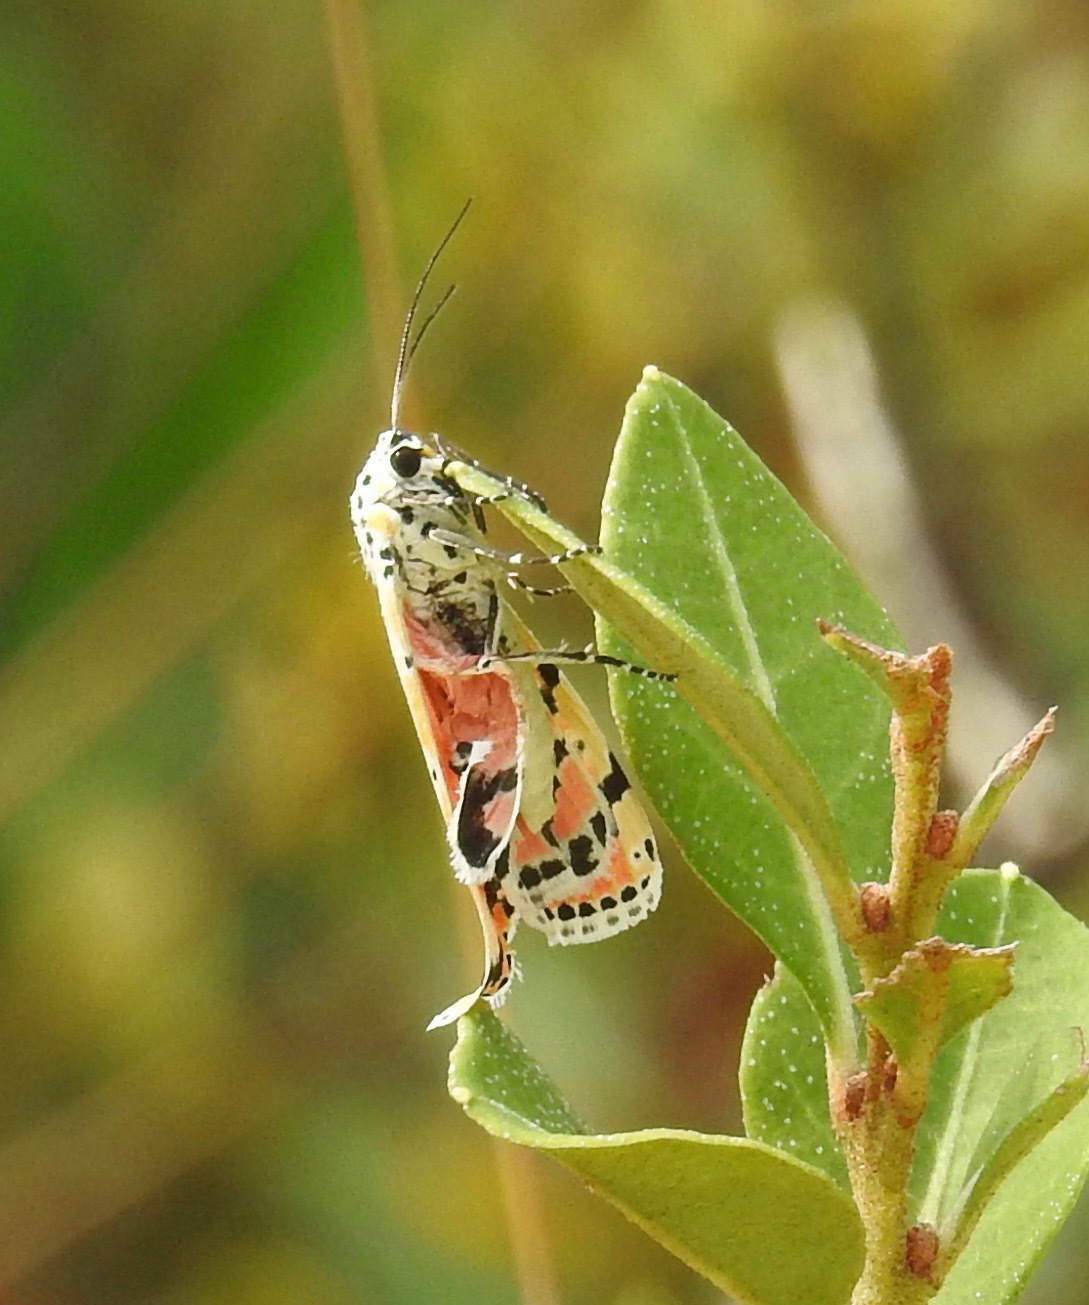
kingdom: Animalia
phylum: Arthropoda
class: Insecta
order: Lepidoptera
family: Erebidae
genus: Utetheisa
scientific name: Utetheisa ornatrix
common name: Beautiful utetheisa
